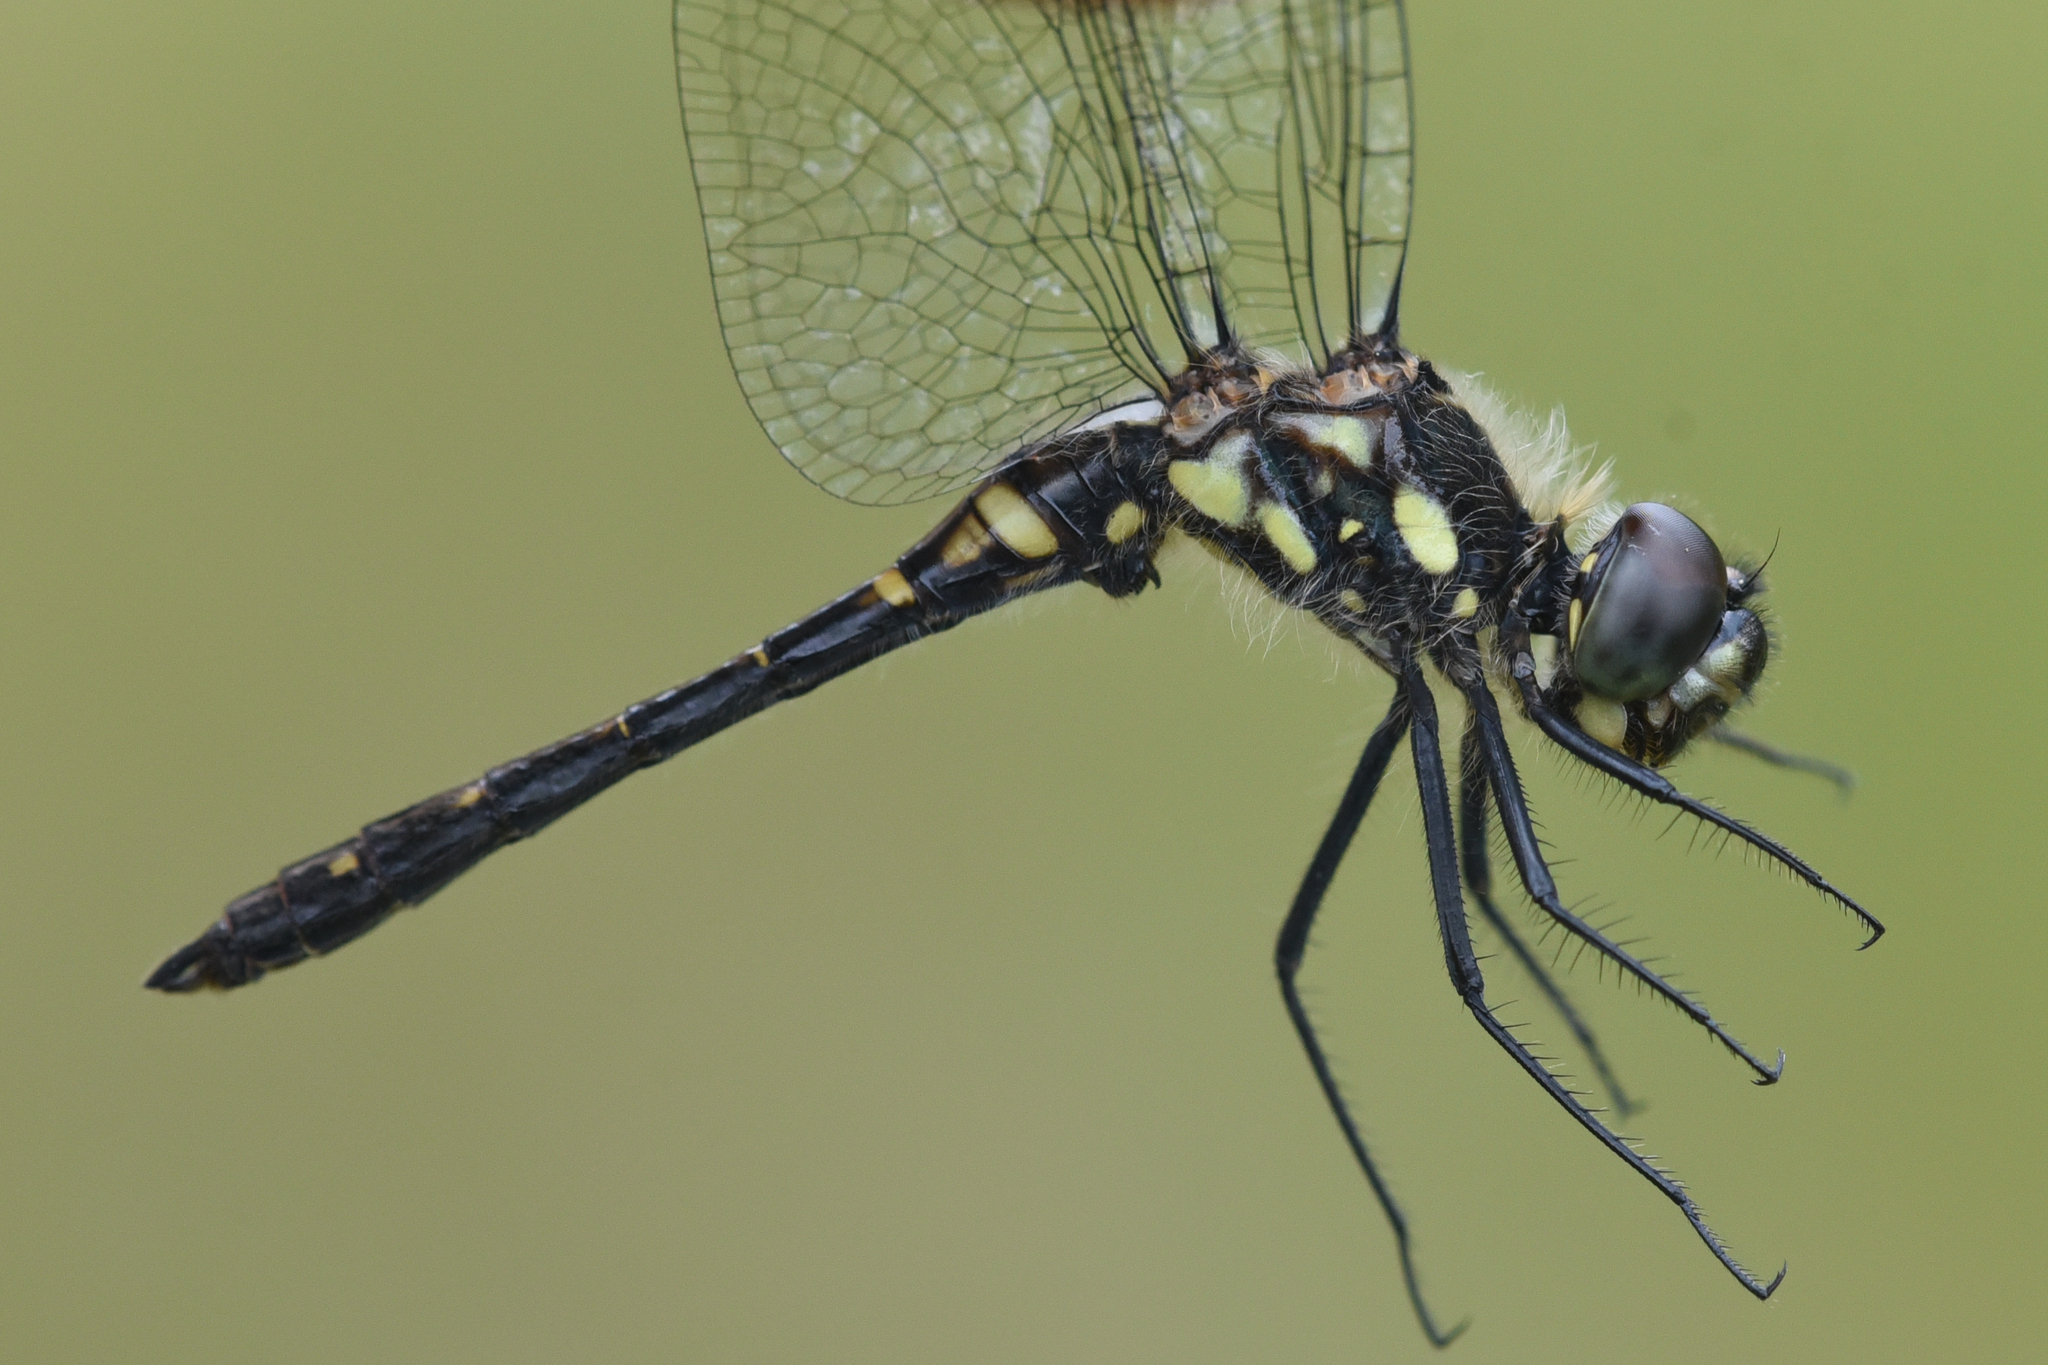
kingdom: Animalia
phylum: Arthropoda
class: Insecta
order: Odonata
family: Libellulidae
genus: Sympetrum
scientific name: Sympetrum danae
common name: Black darter
